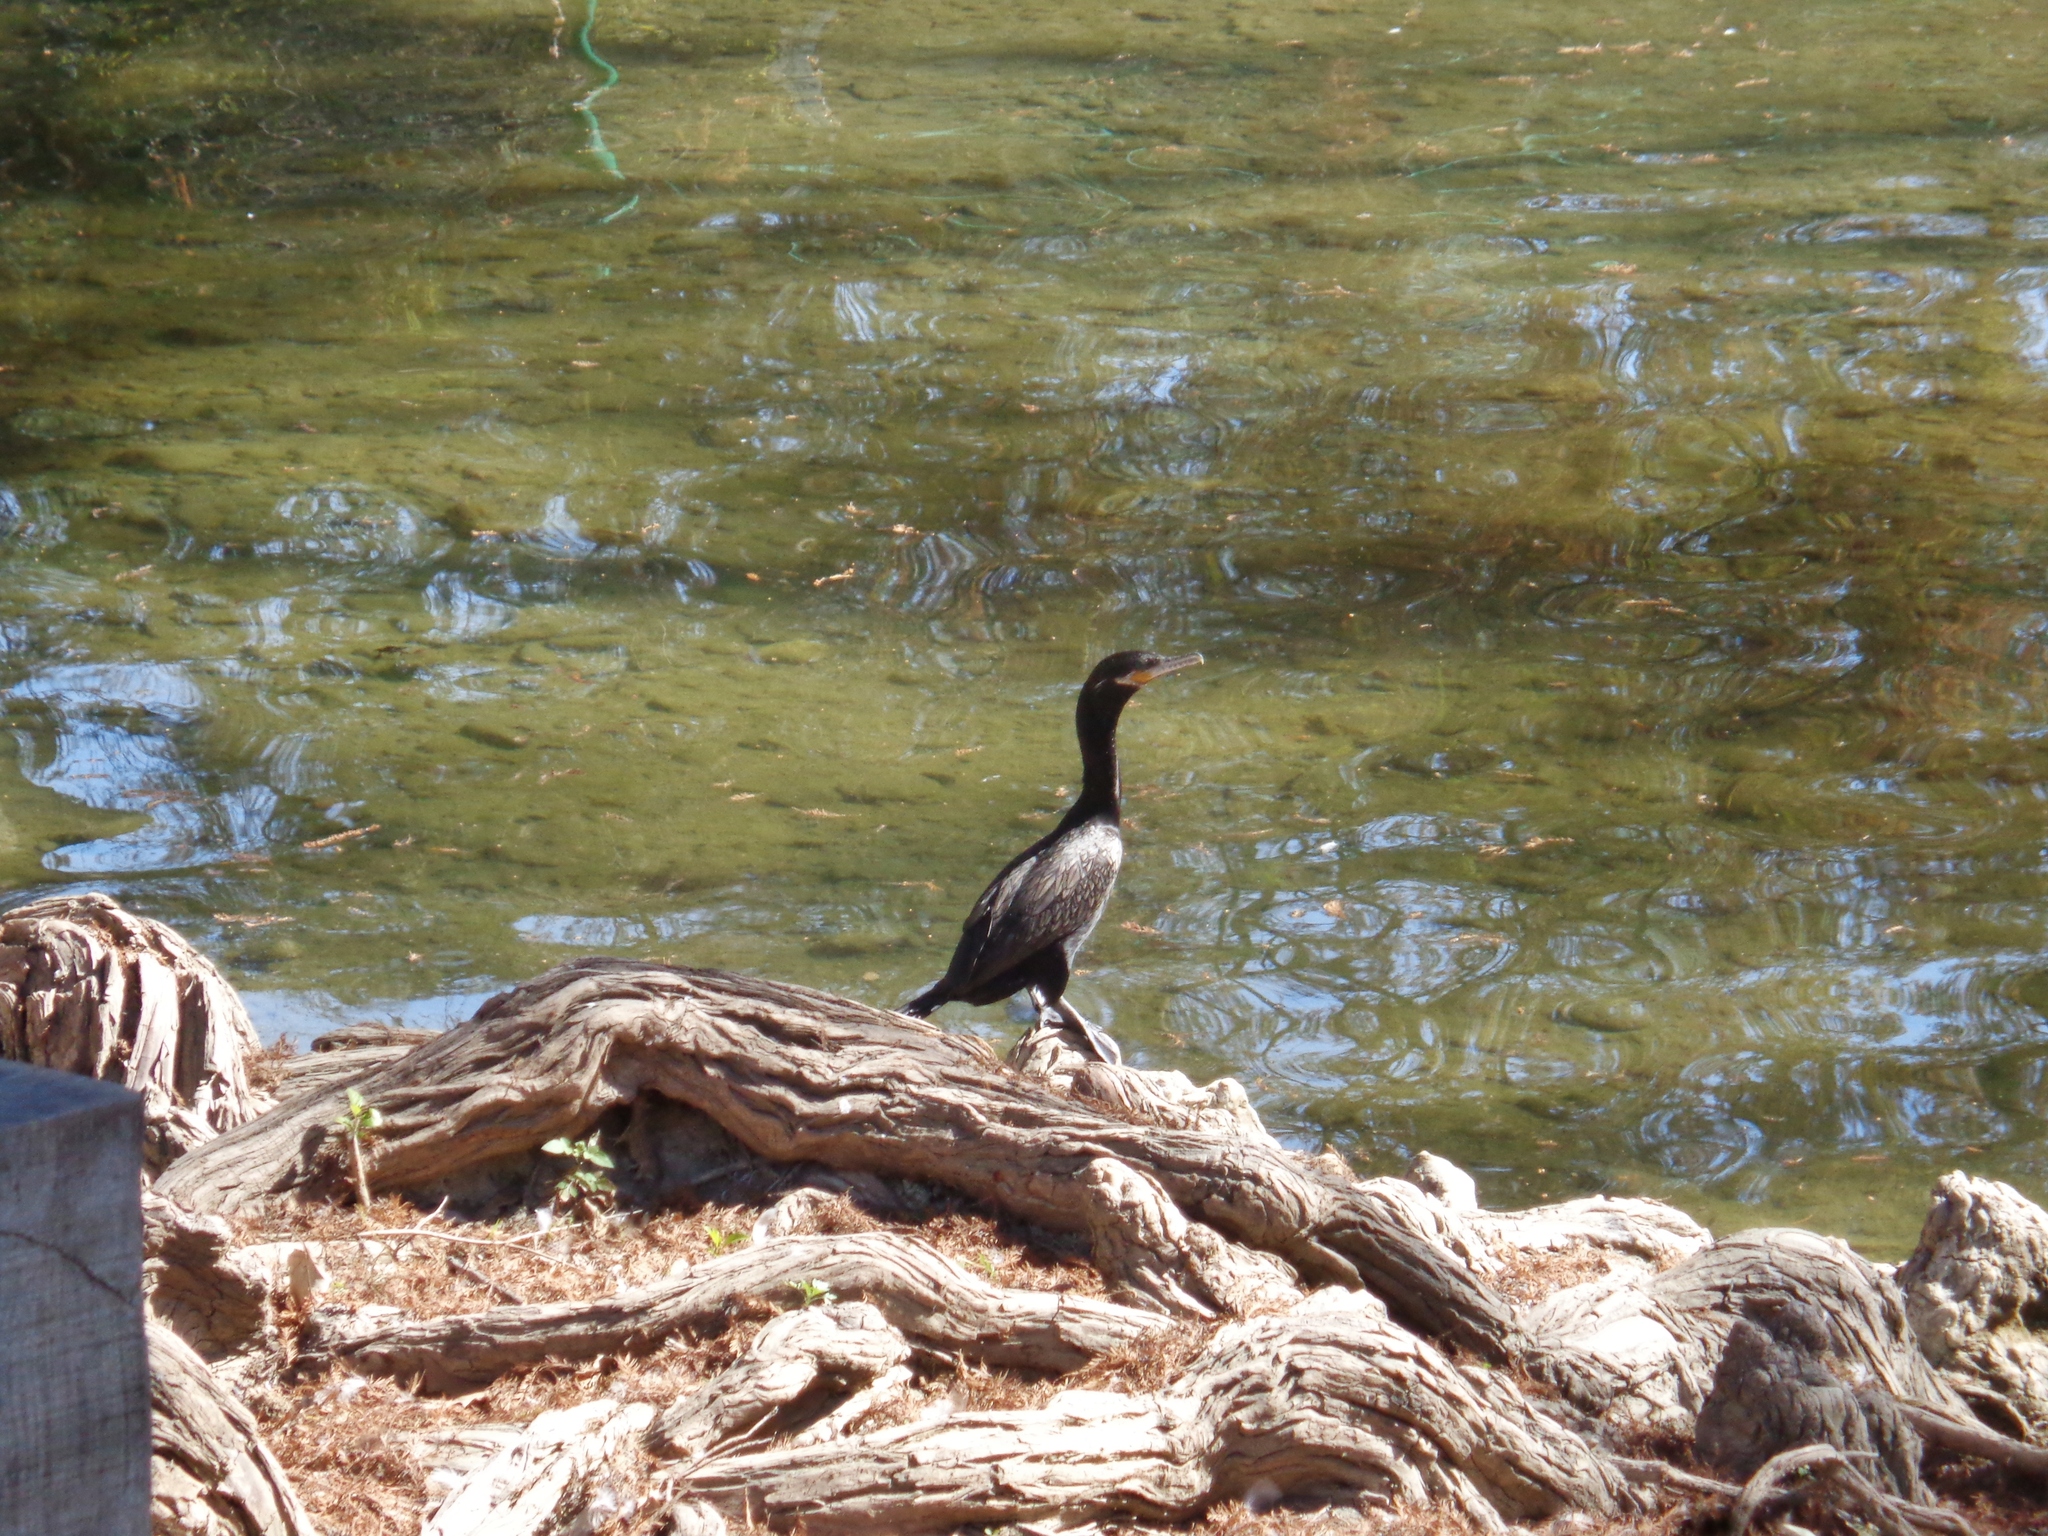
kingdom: Animalia
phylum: Chordata
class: Aves
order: Suliformes
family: Phalacrocoracidae
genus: Phalacrocorax
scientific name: Phalacrocorax brasilianus
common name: Neotropic cormorant
